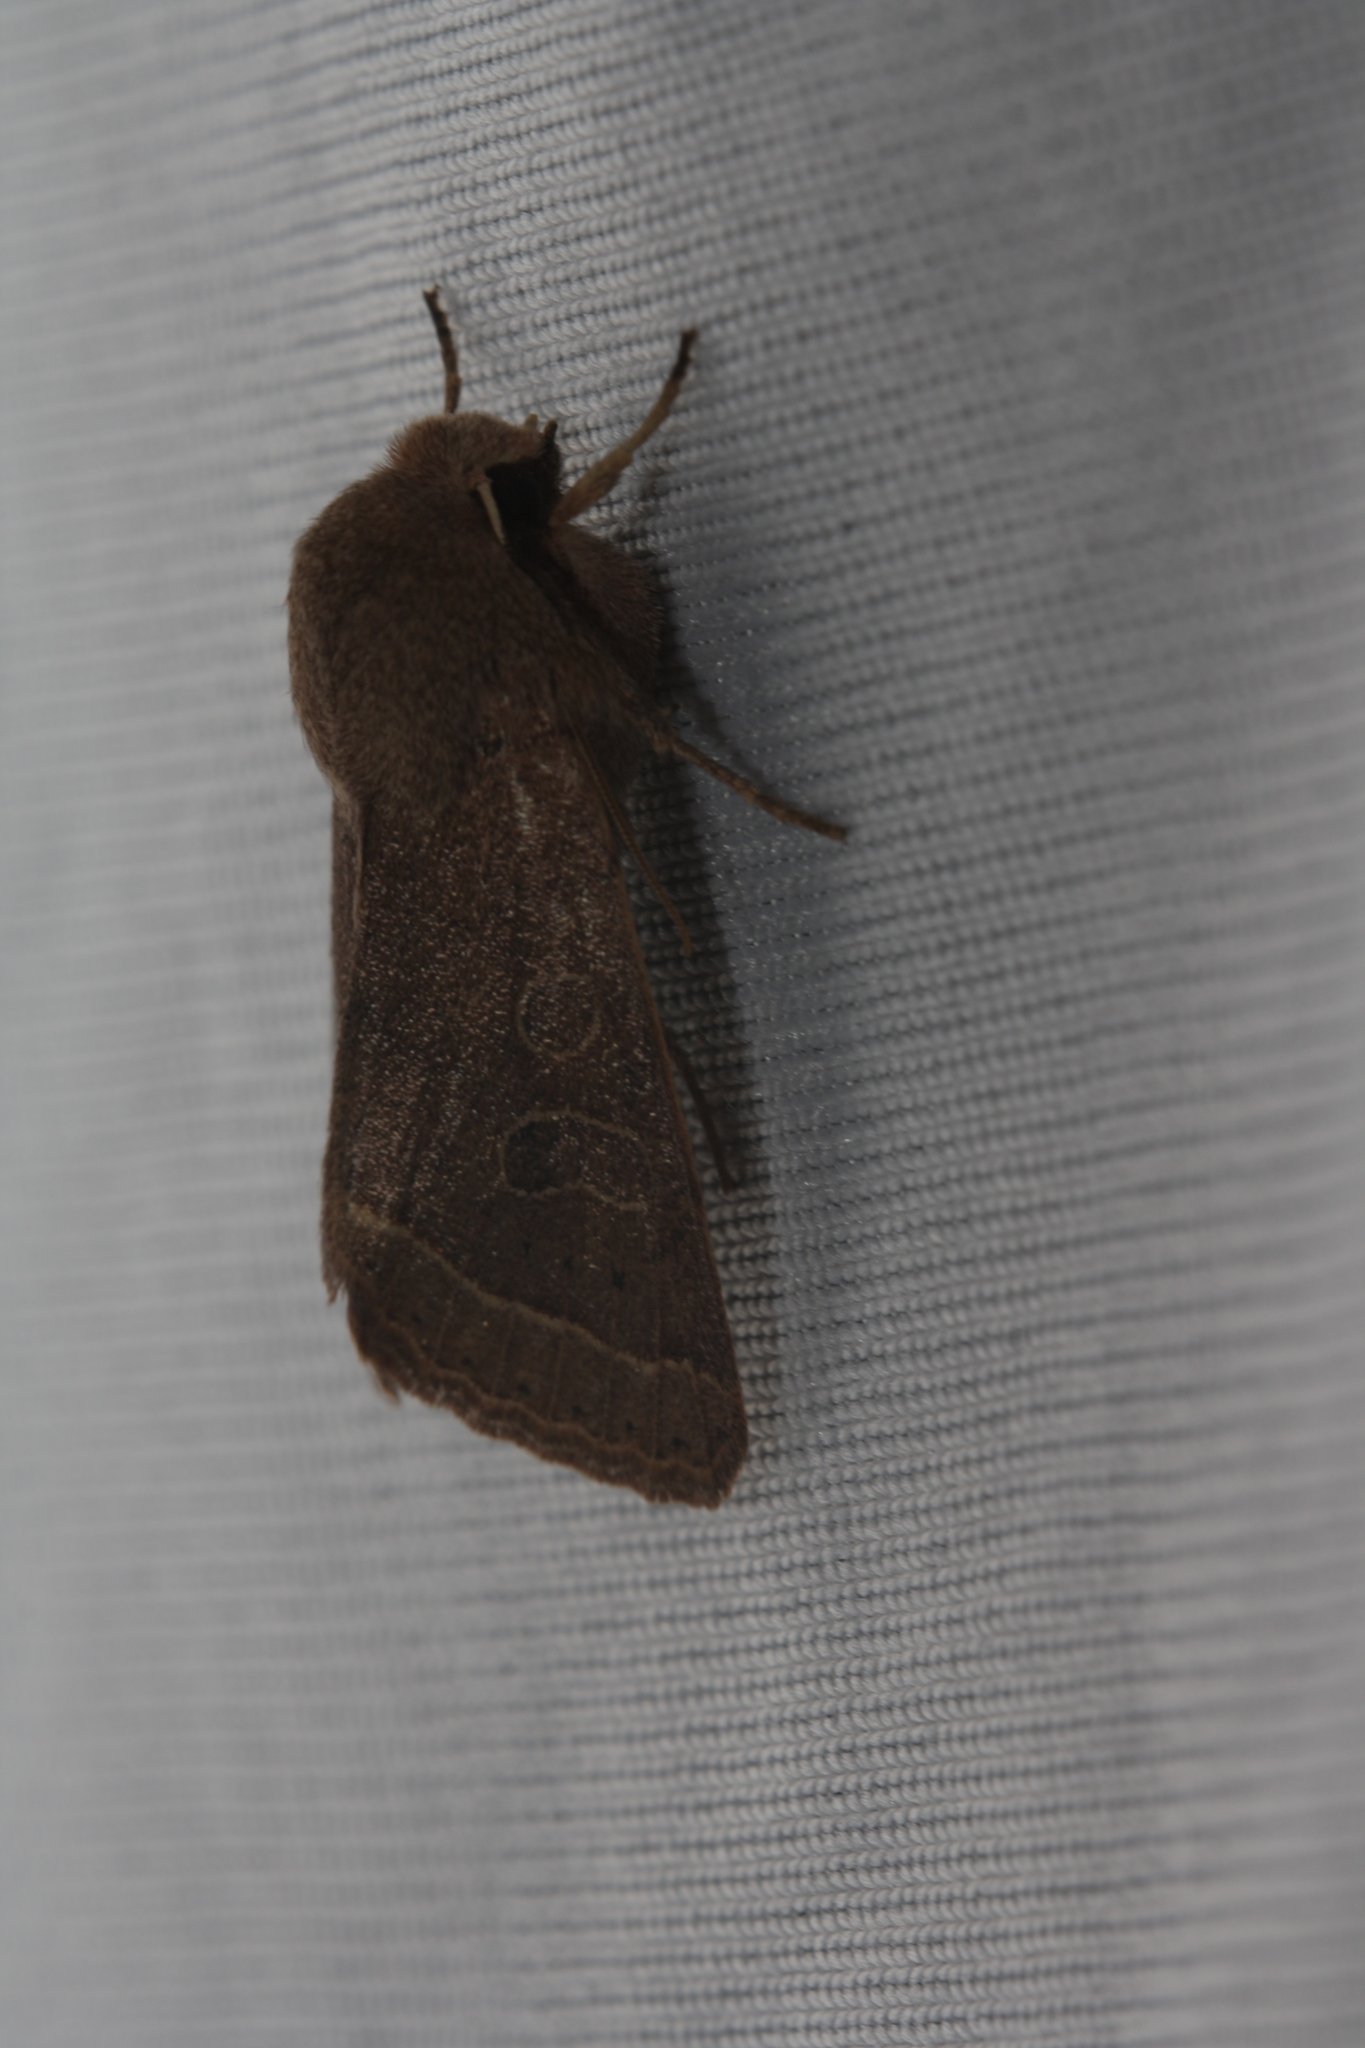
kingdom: Animalia
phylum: Arthropoda
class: Insecta
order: Lepidoptera
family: Noctuidae
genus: Orthosia
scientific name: Orthosia cerasi
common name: Common quaker
